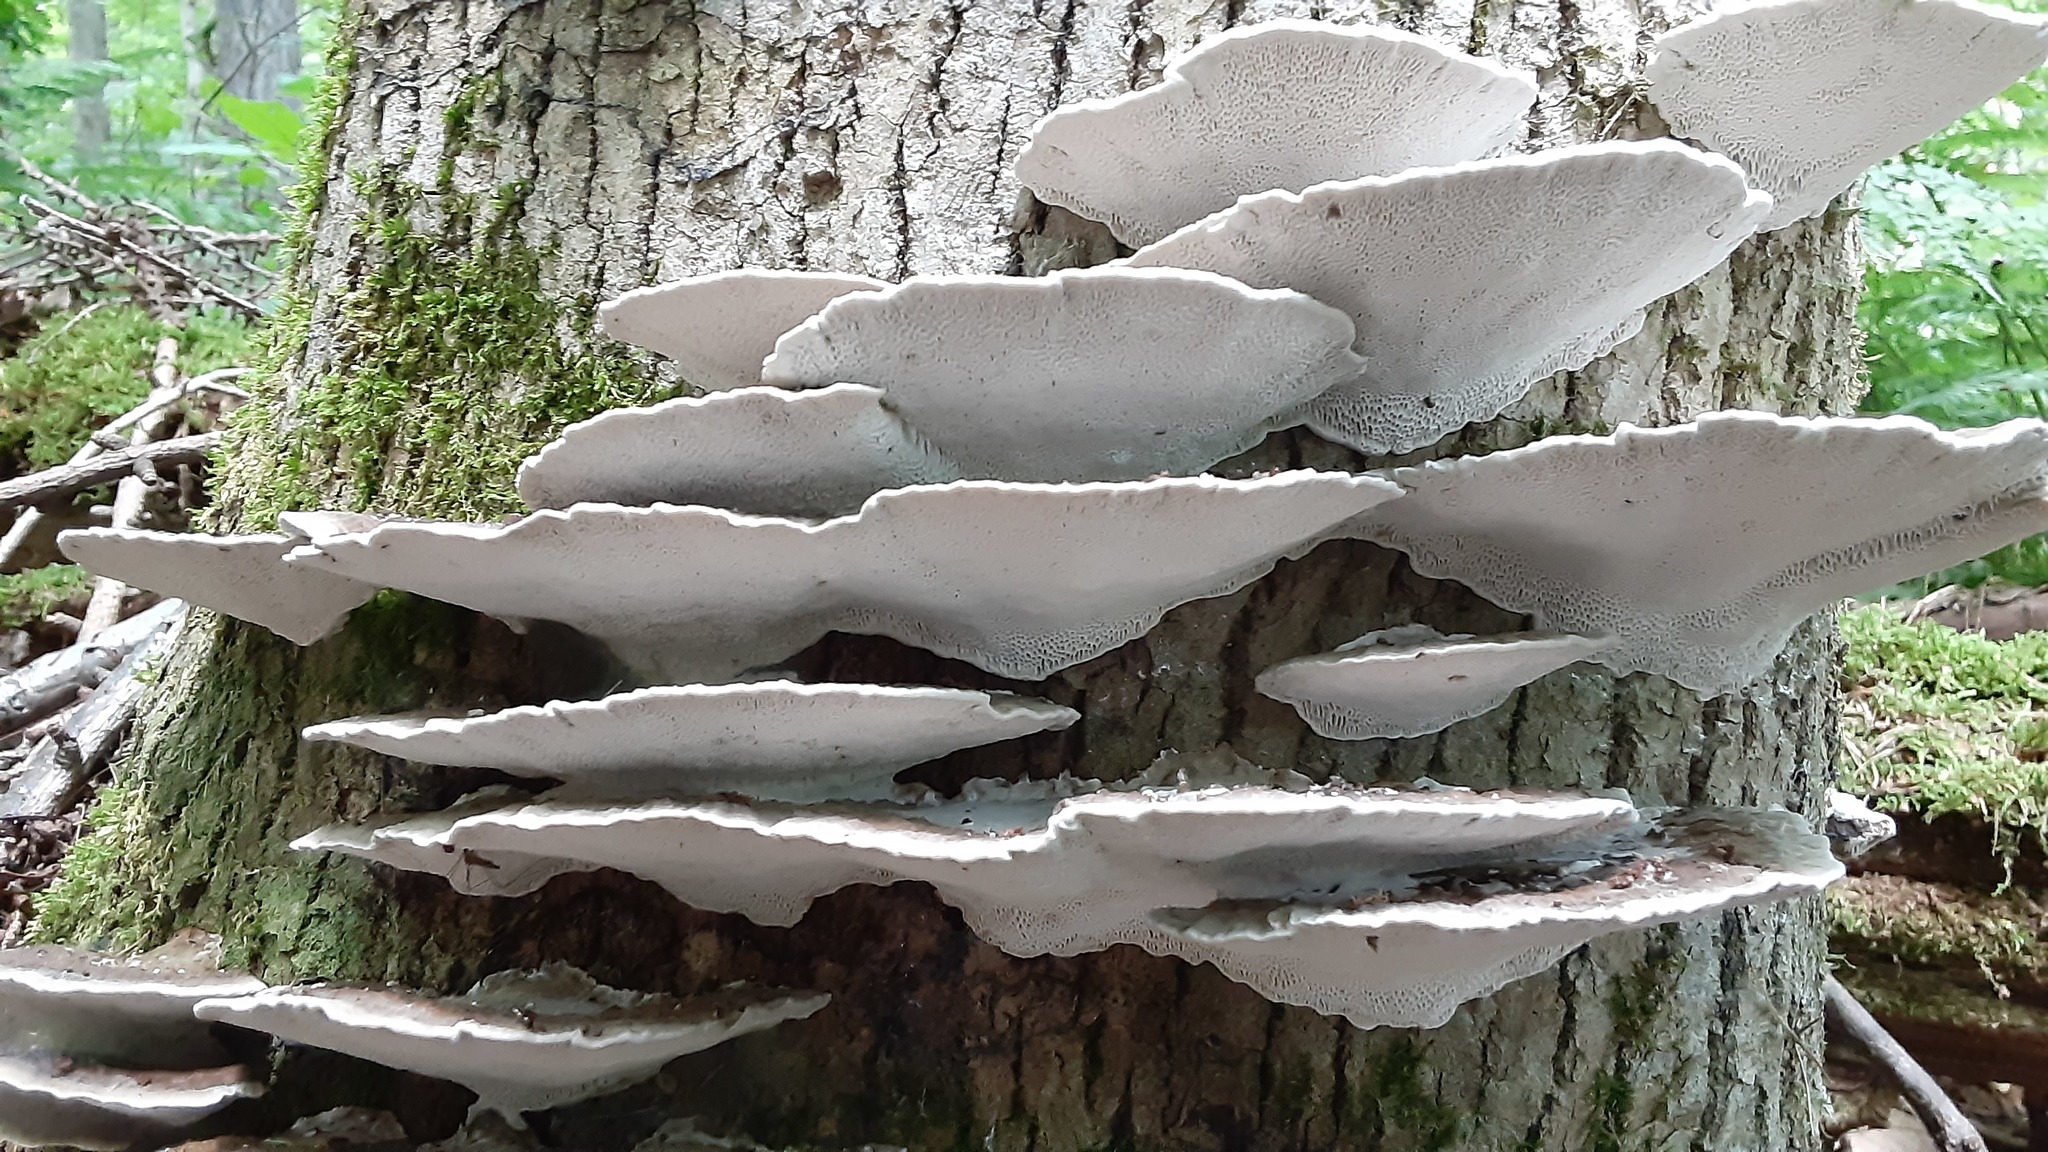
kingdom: Fungi
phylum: Basidiomycota
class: Agaricomycetes
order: Polyporales
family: Polyporaceae
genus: Daedaleopsis
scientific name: Daedaleopsis confragosa
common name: Blushing bracket
